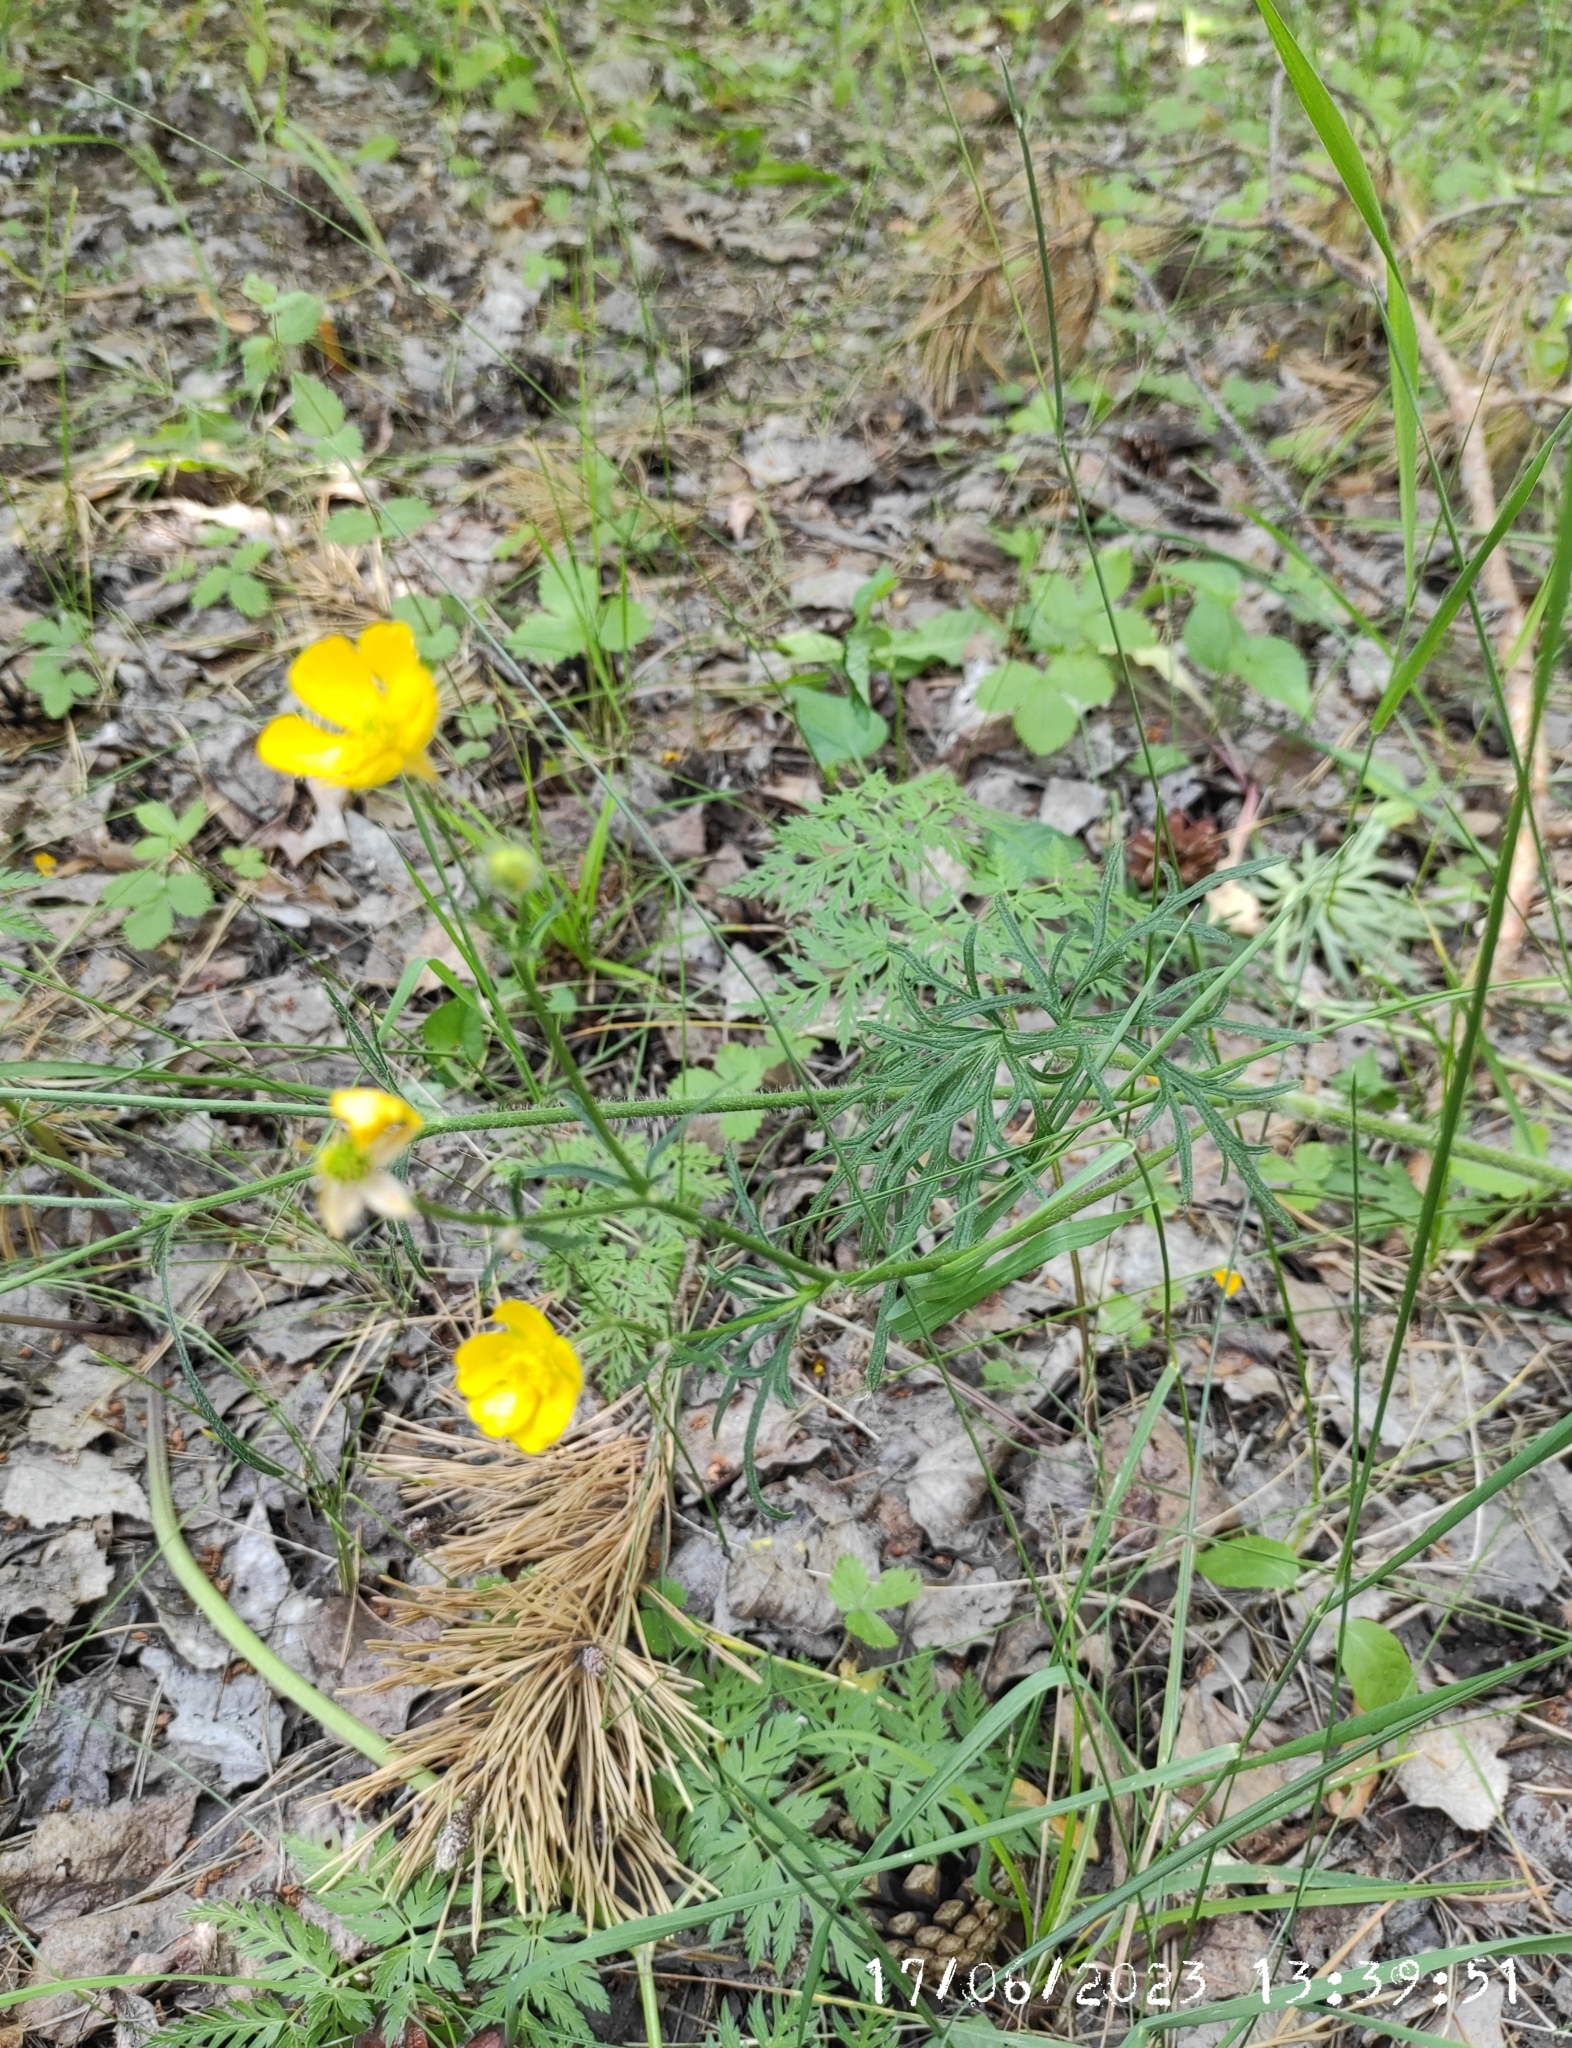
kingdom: Plantae
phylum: Tracheophyta
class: Magnoliopsida
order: Ranunculales
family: Ranunculaceae
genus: Ranunculus
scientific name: Ranunculus polyanthemos
